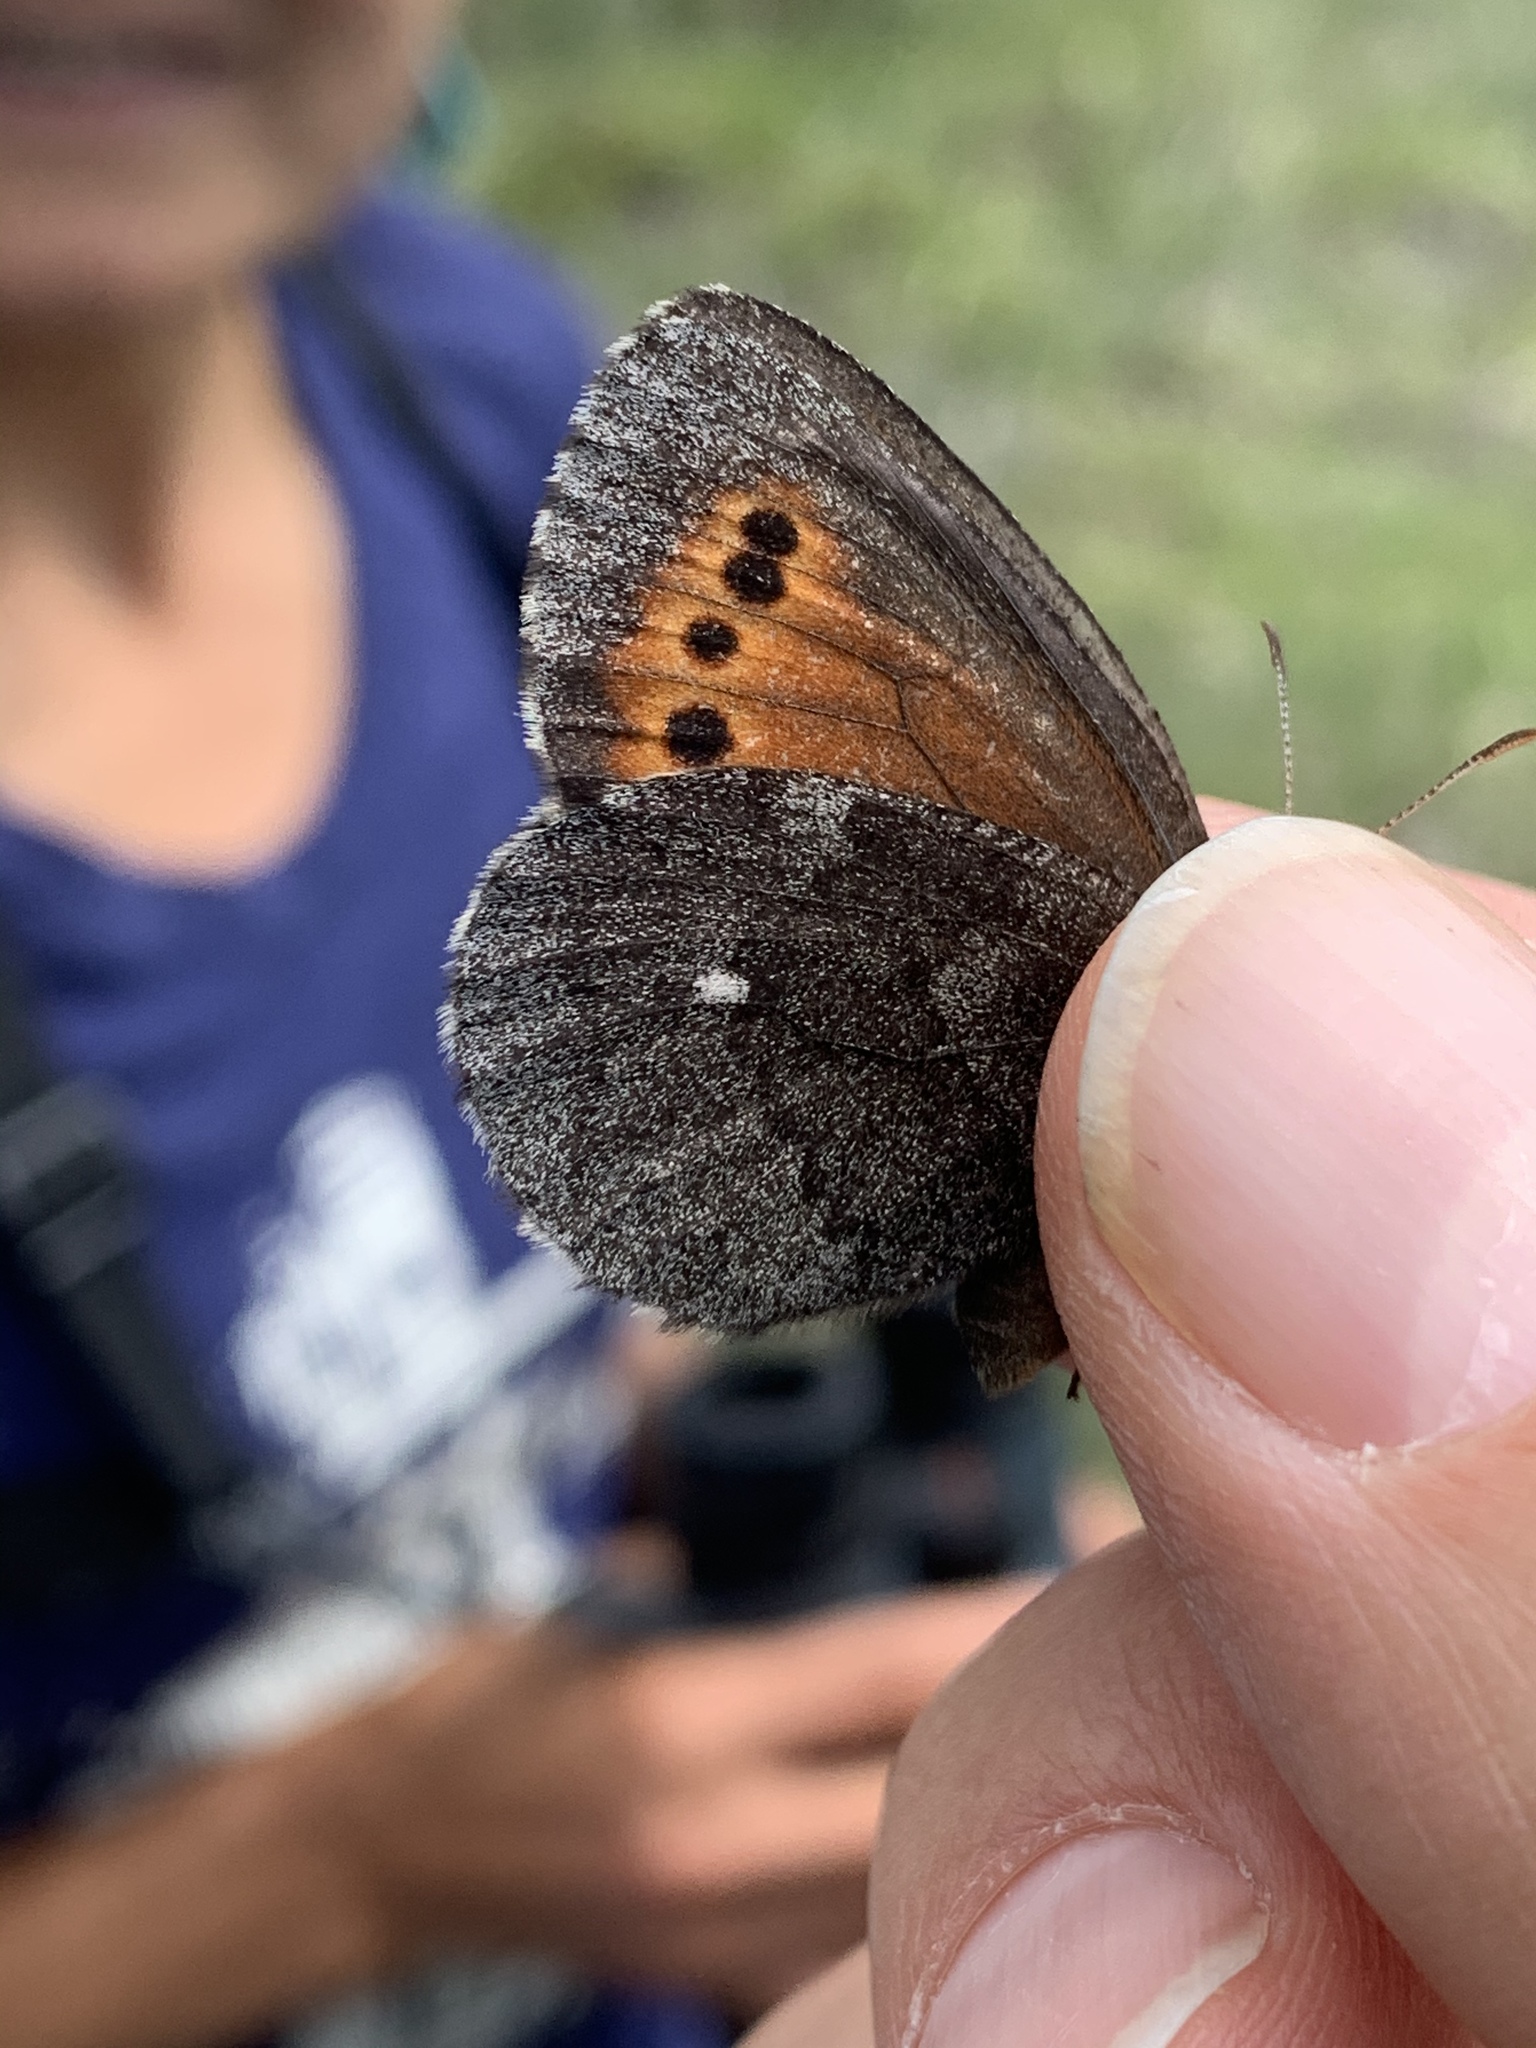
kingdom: Animalia
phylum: Arthropoda
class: Insecta
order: Lepidoptera
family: Nymphalidae
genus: Erebia
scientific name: Erebia disa
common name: Arctic ringlet
